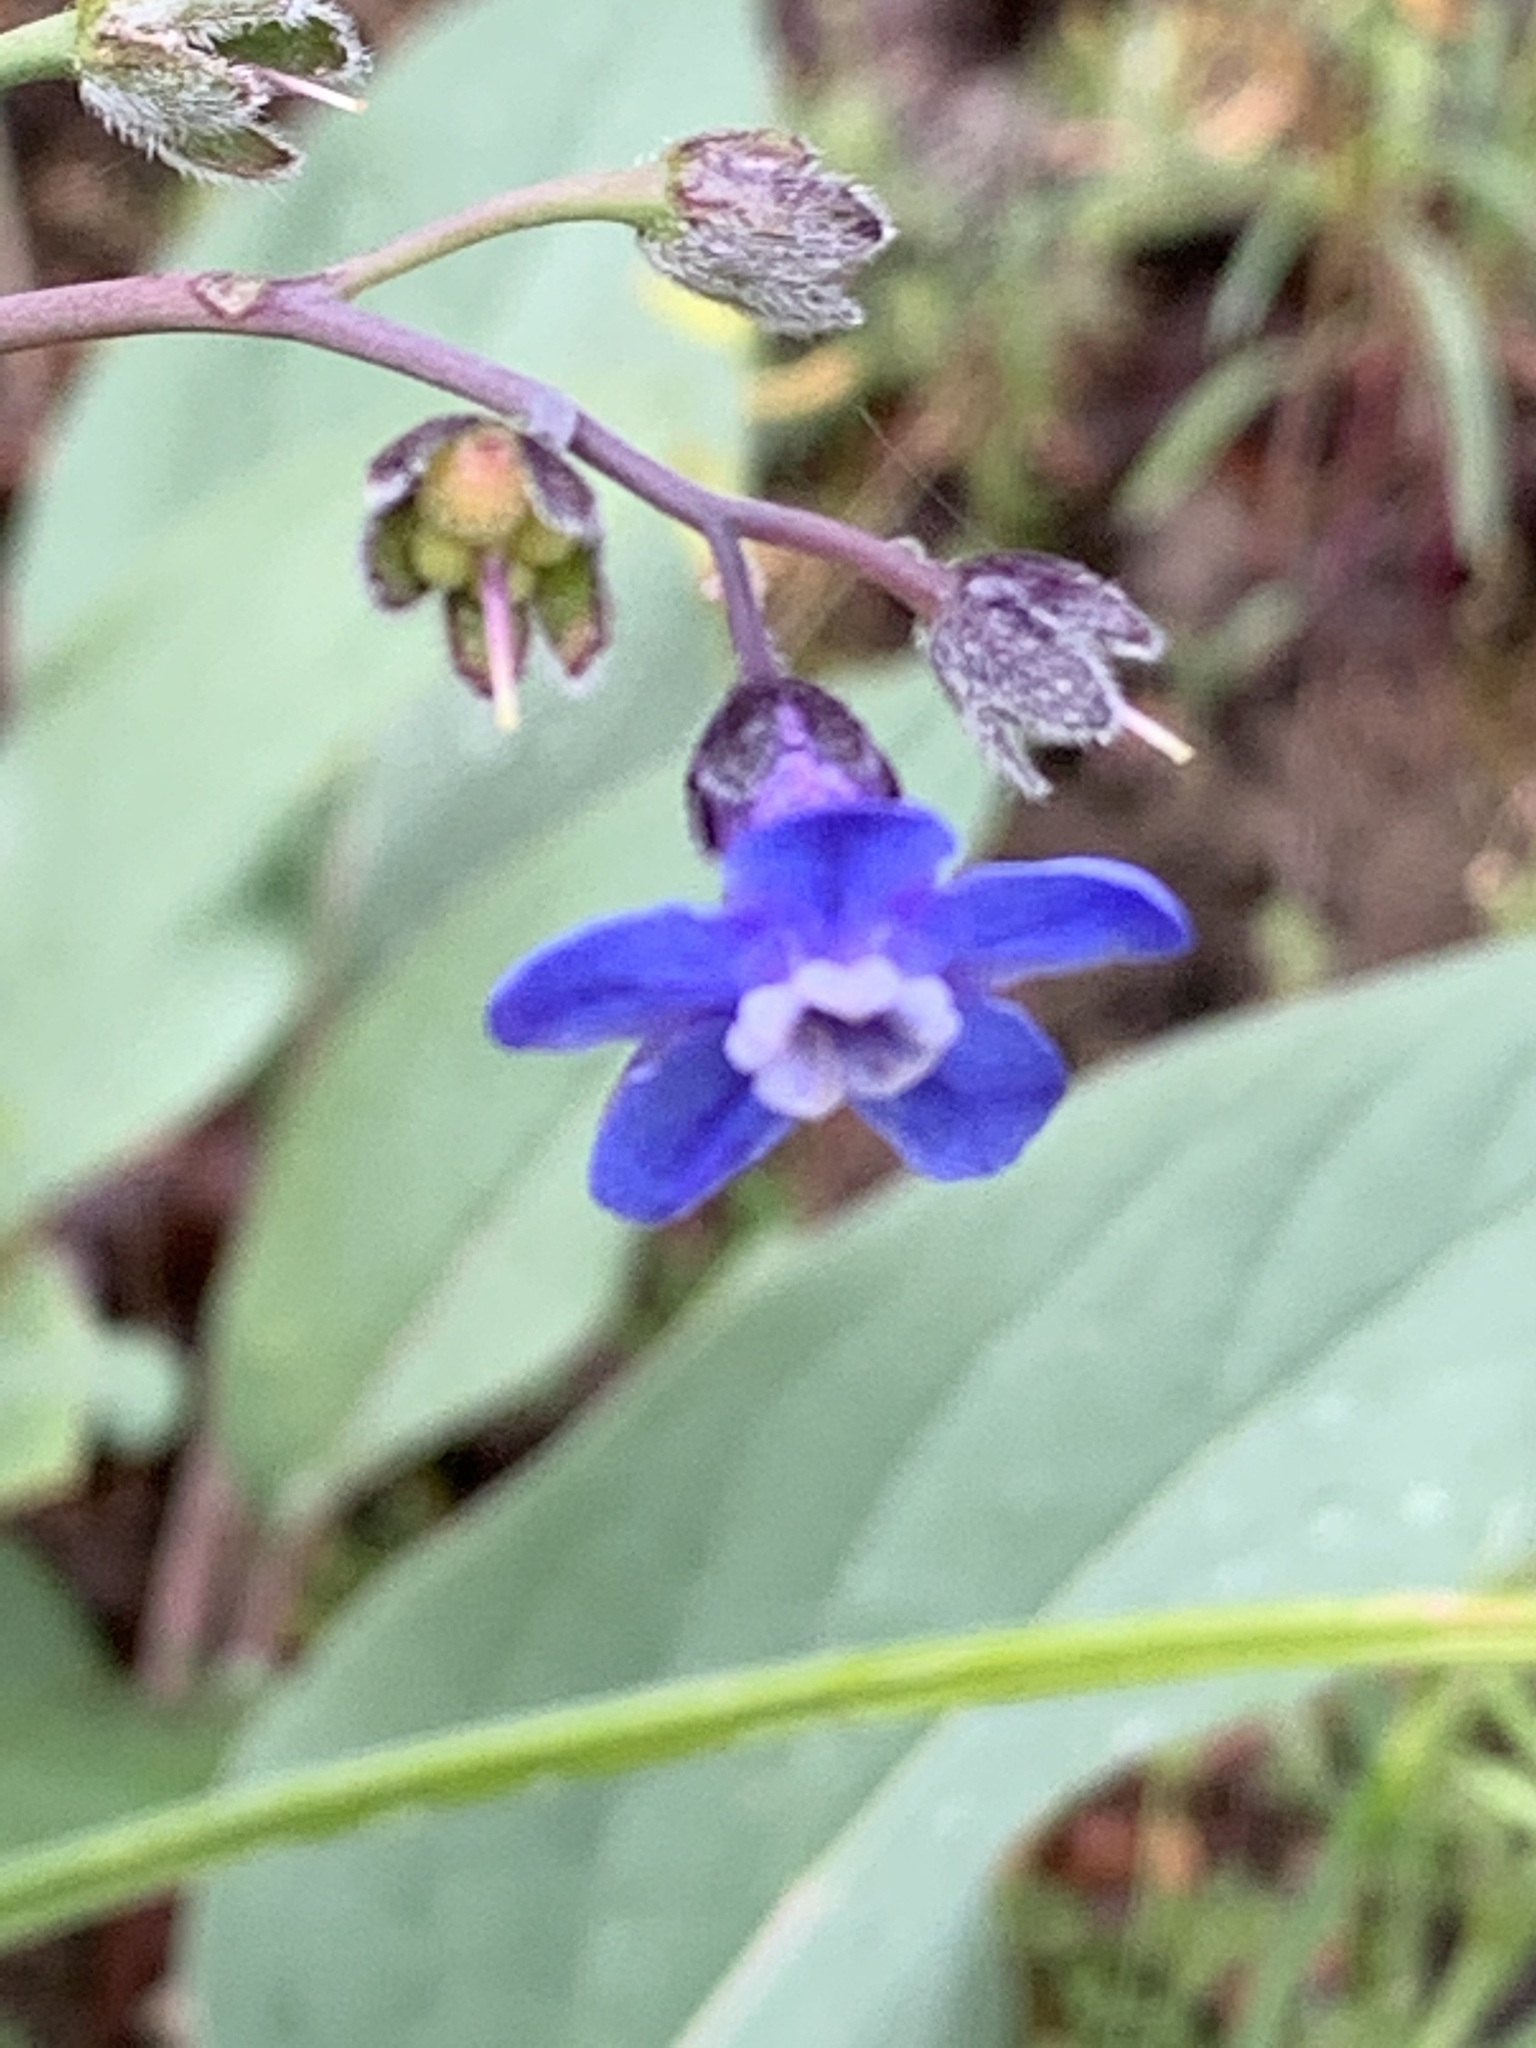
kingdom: Plantae
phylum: Tracheophyta
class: Magnoliopsida
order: Boraginales
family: Boraginaceae
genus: Adelinia
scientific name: Adelinia grande
